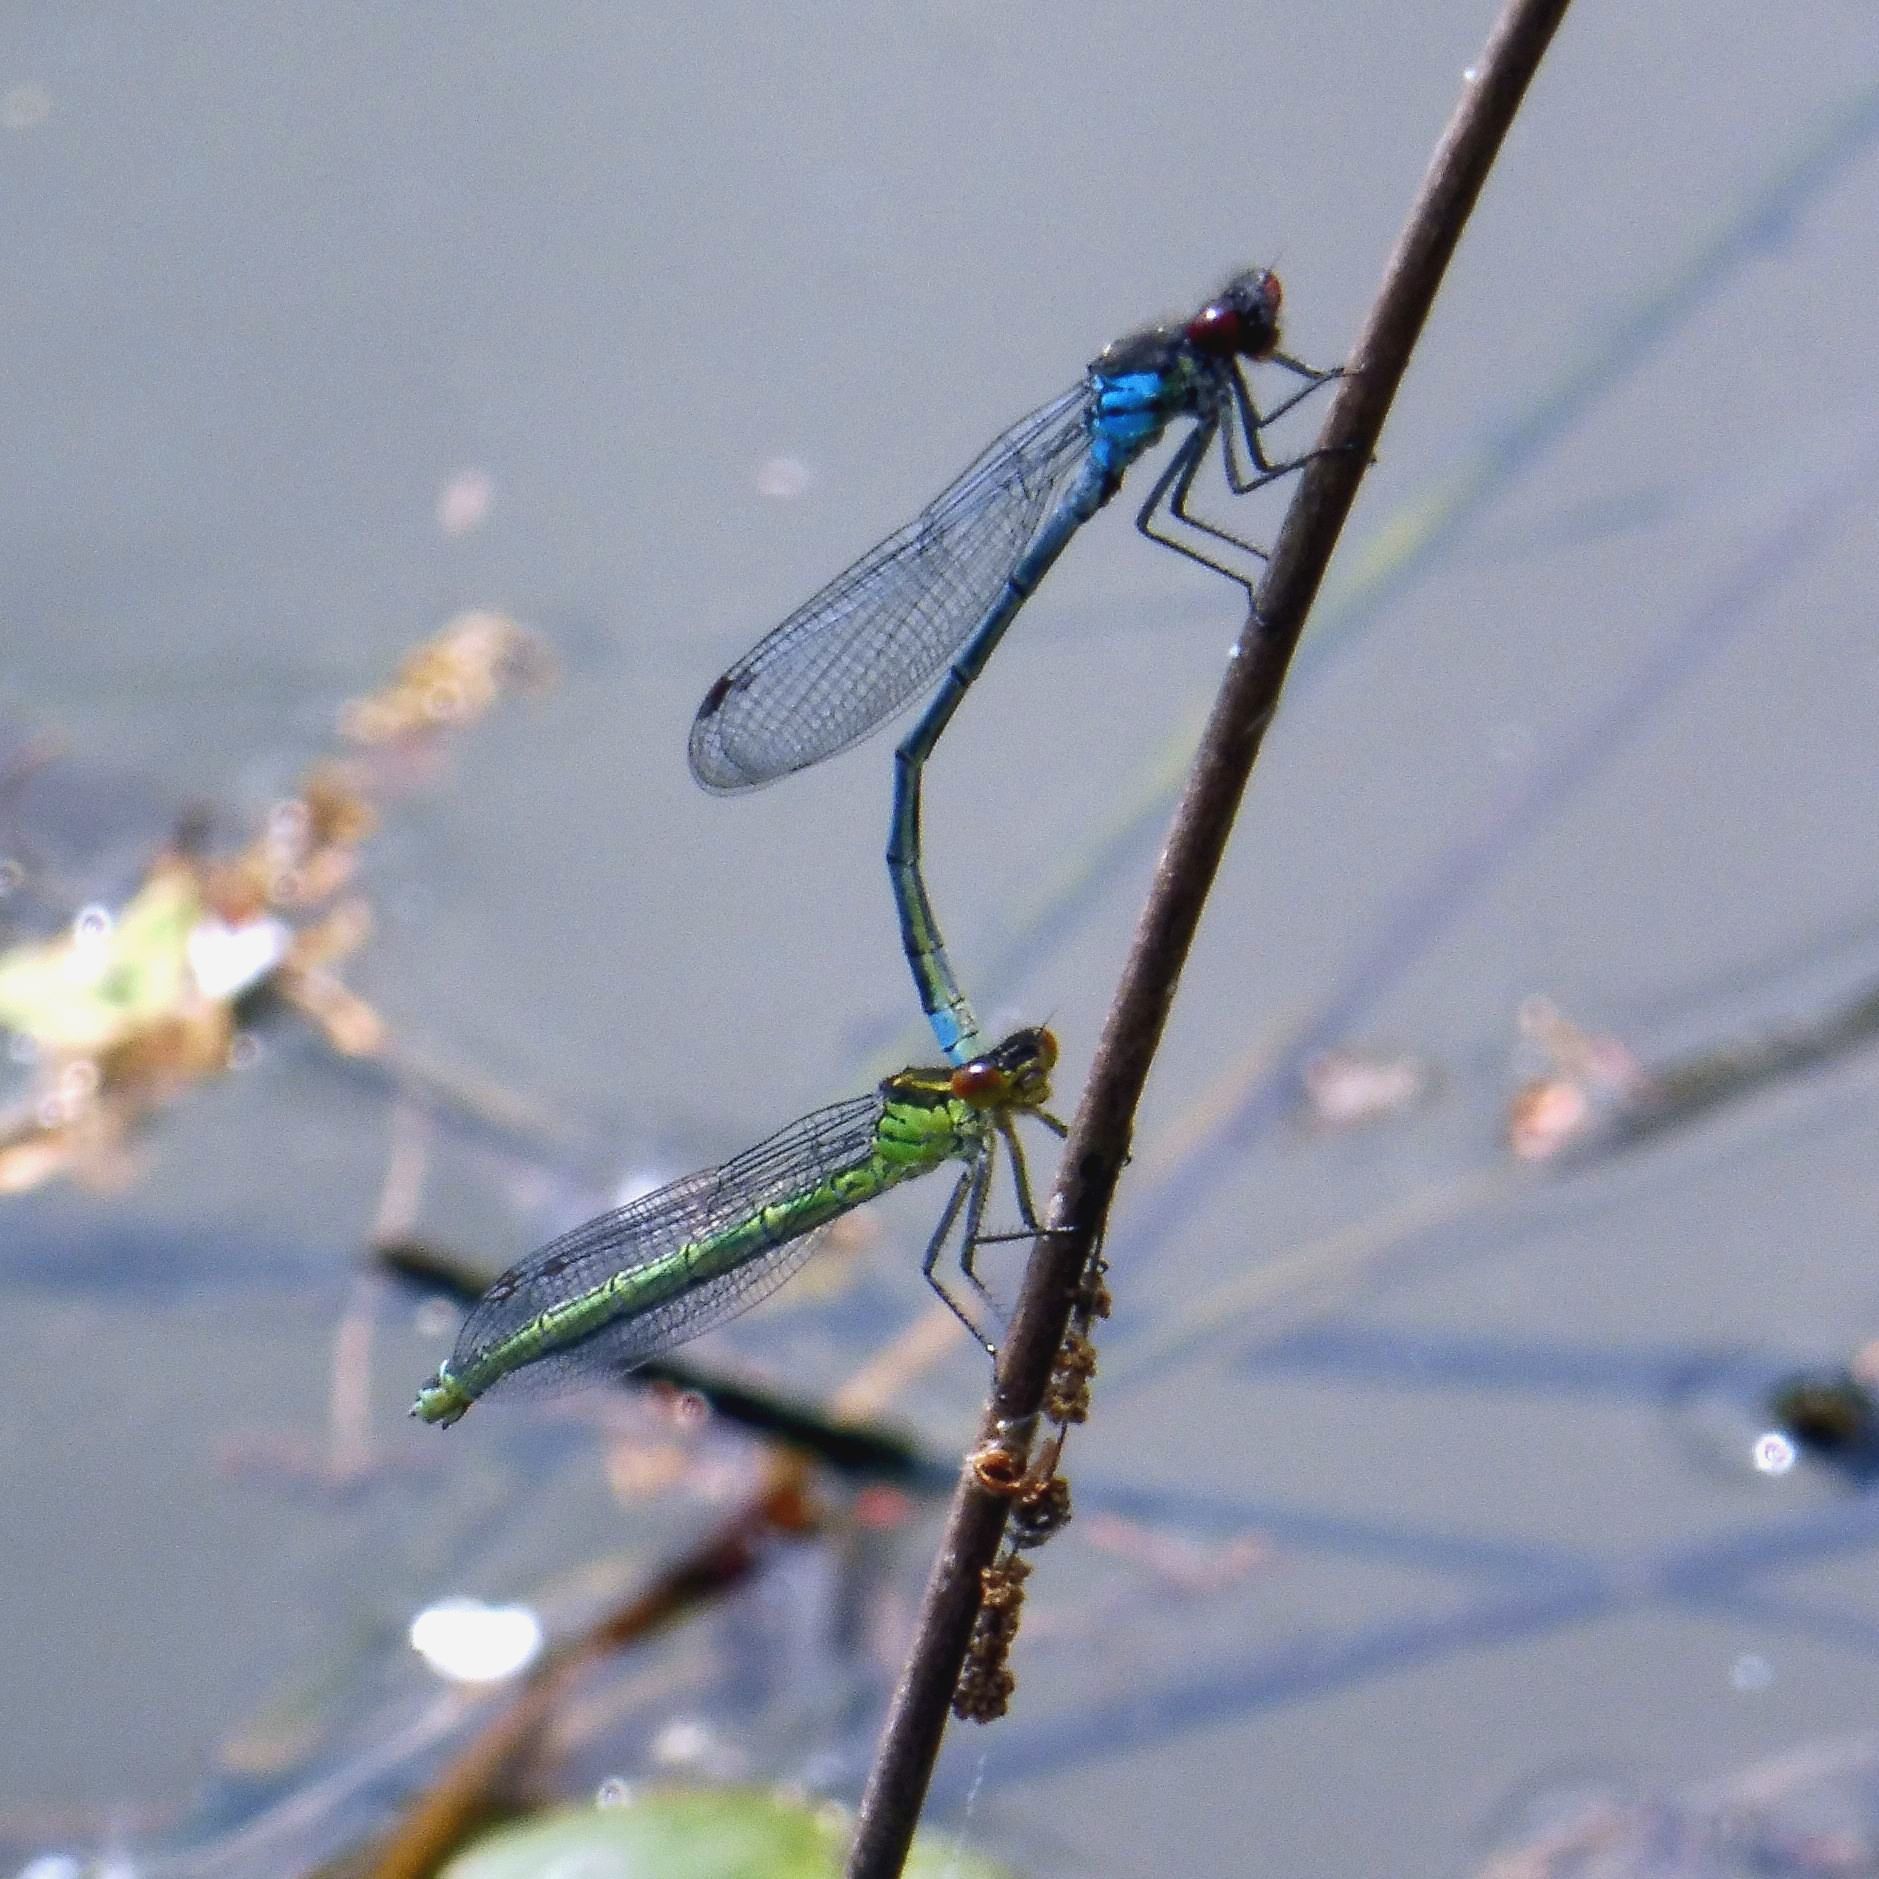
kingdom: Animalia
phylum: Arthropoda
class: Insecta
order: Odonata
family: Coenagrionidae
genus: Erythromma
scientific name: Erythromma najas
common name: Red-eyed damselfly
